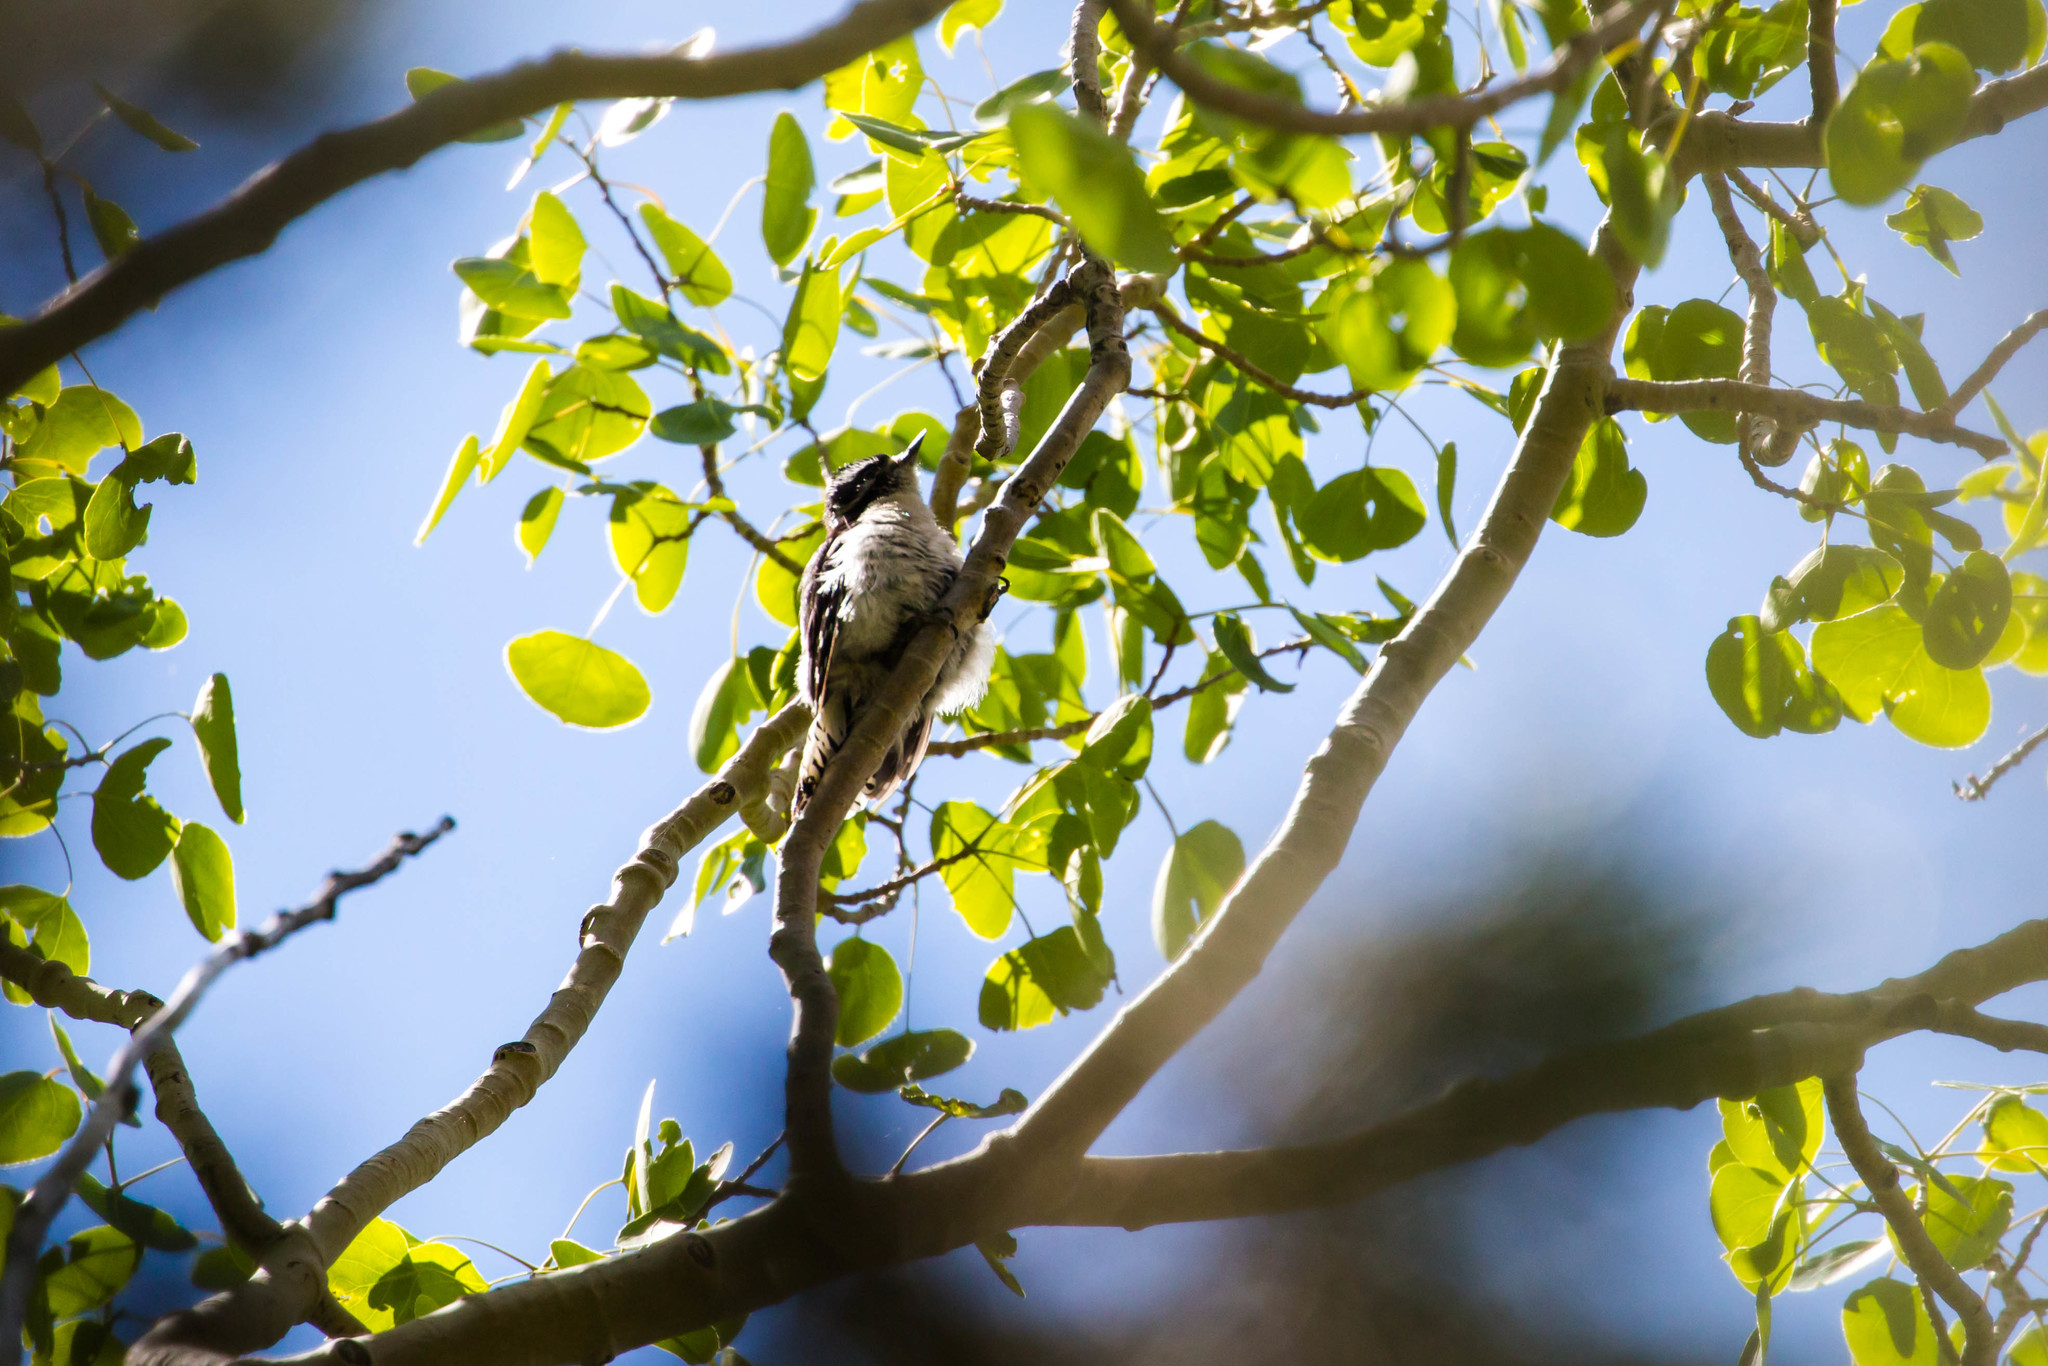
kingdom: Animalia
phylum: Chordata
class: Aves
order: Piciformes
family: Picidae
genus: Dryobates
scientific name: Dryobates pubescens
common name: Downy woodpecker
